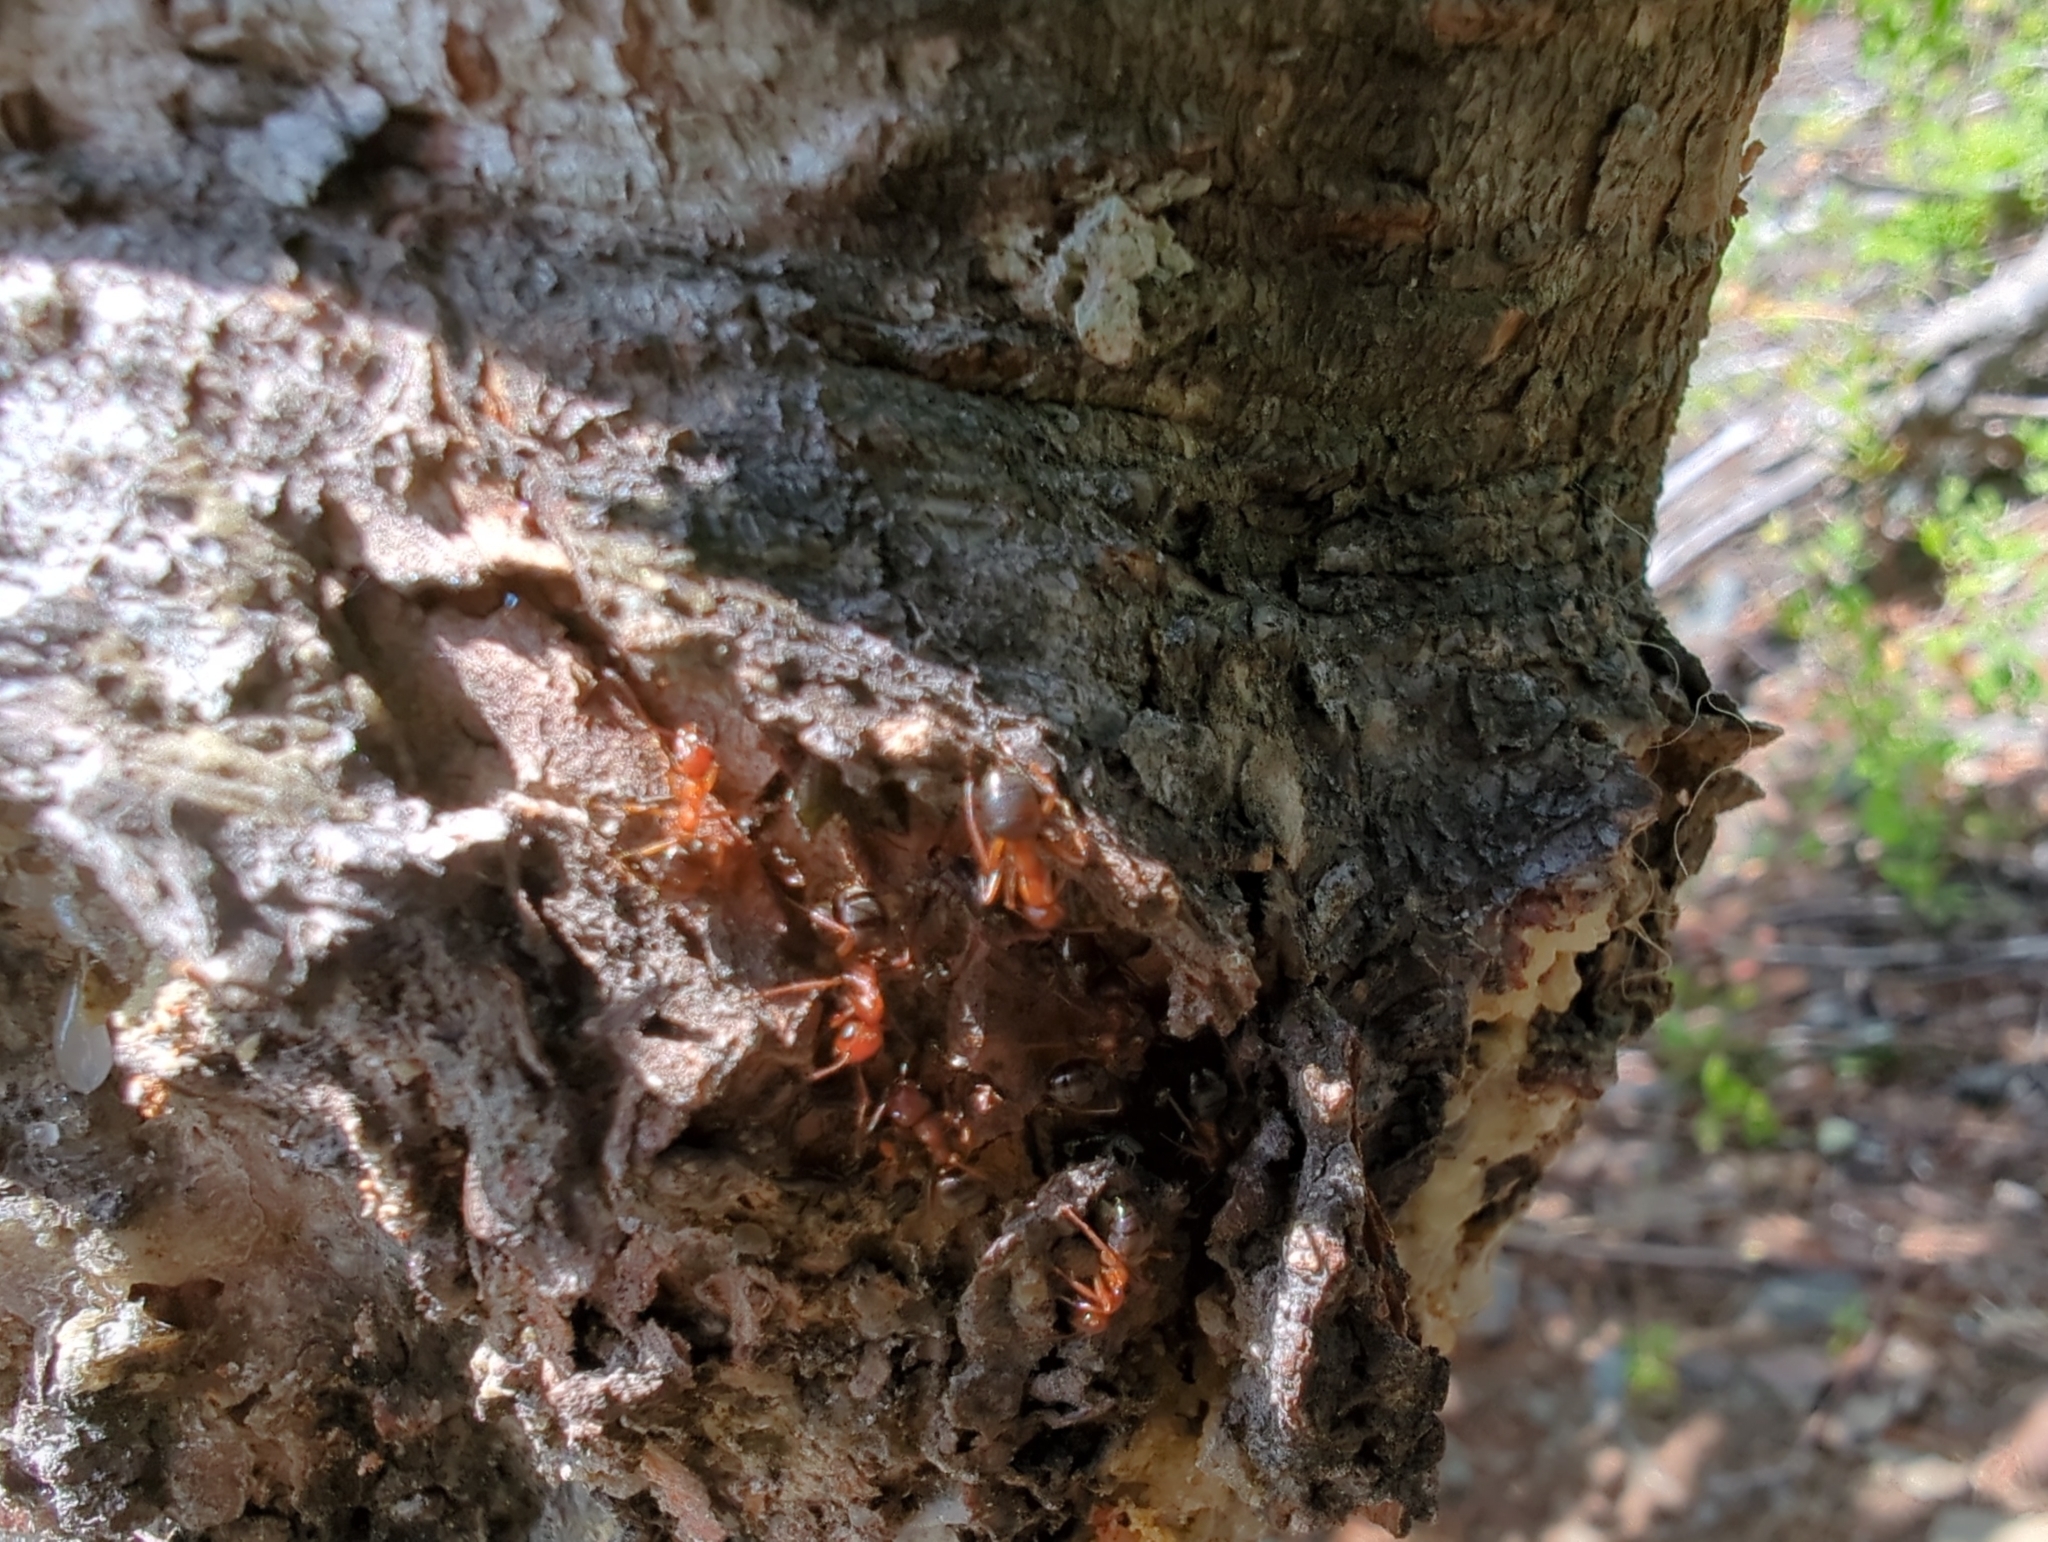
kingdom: Animalia
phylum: Arthropoda
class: Insecta
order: Hymenoptera
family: Formicidae
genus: Formica
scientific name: Formica aserva
